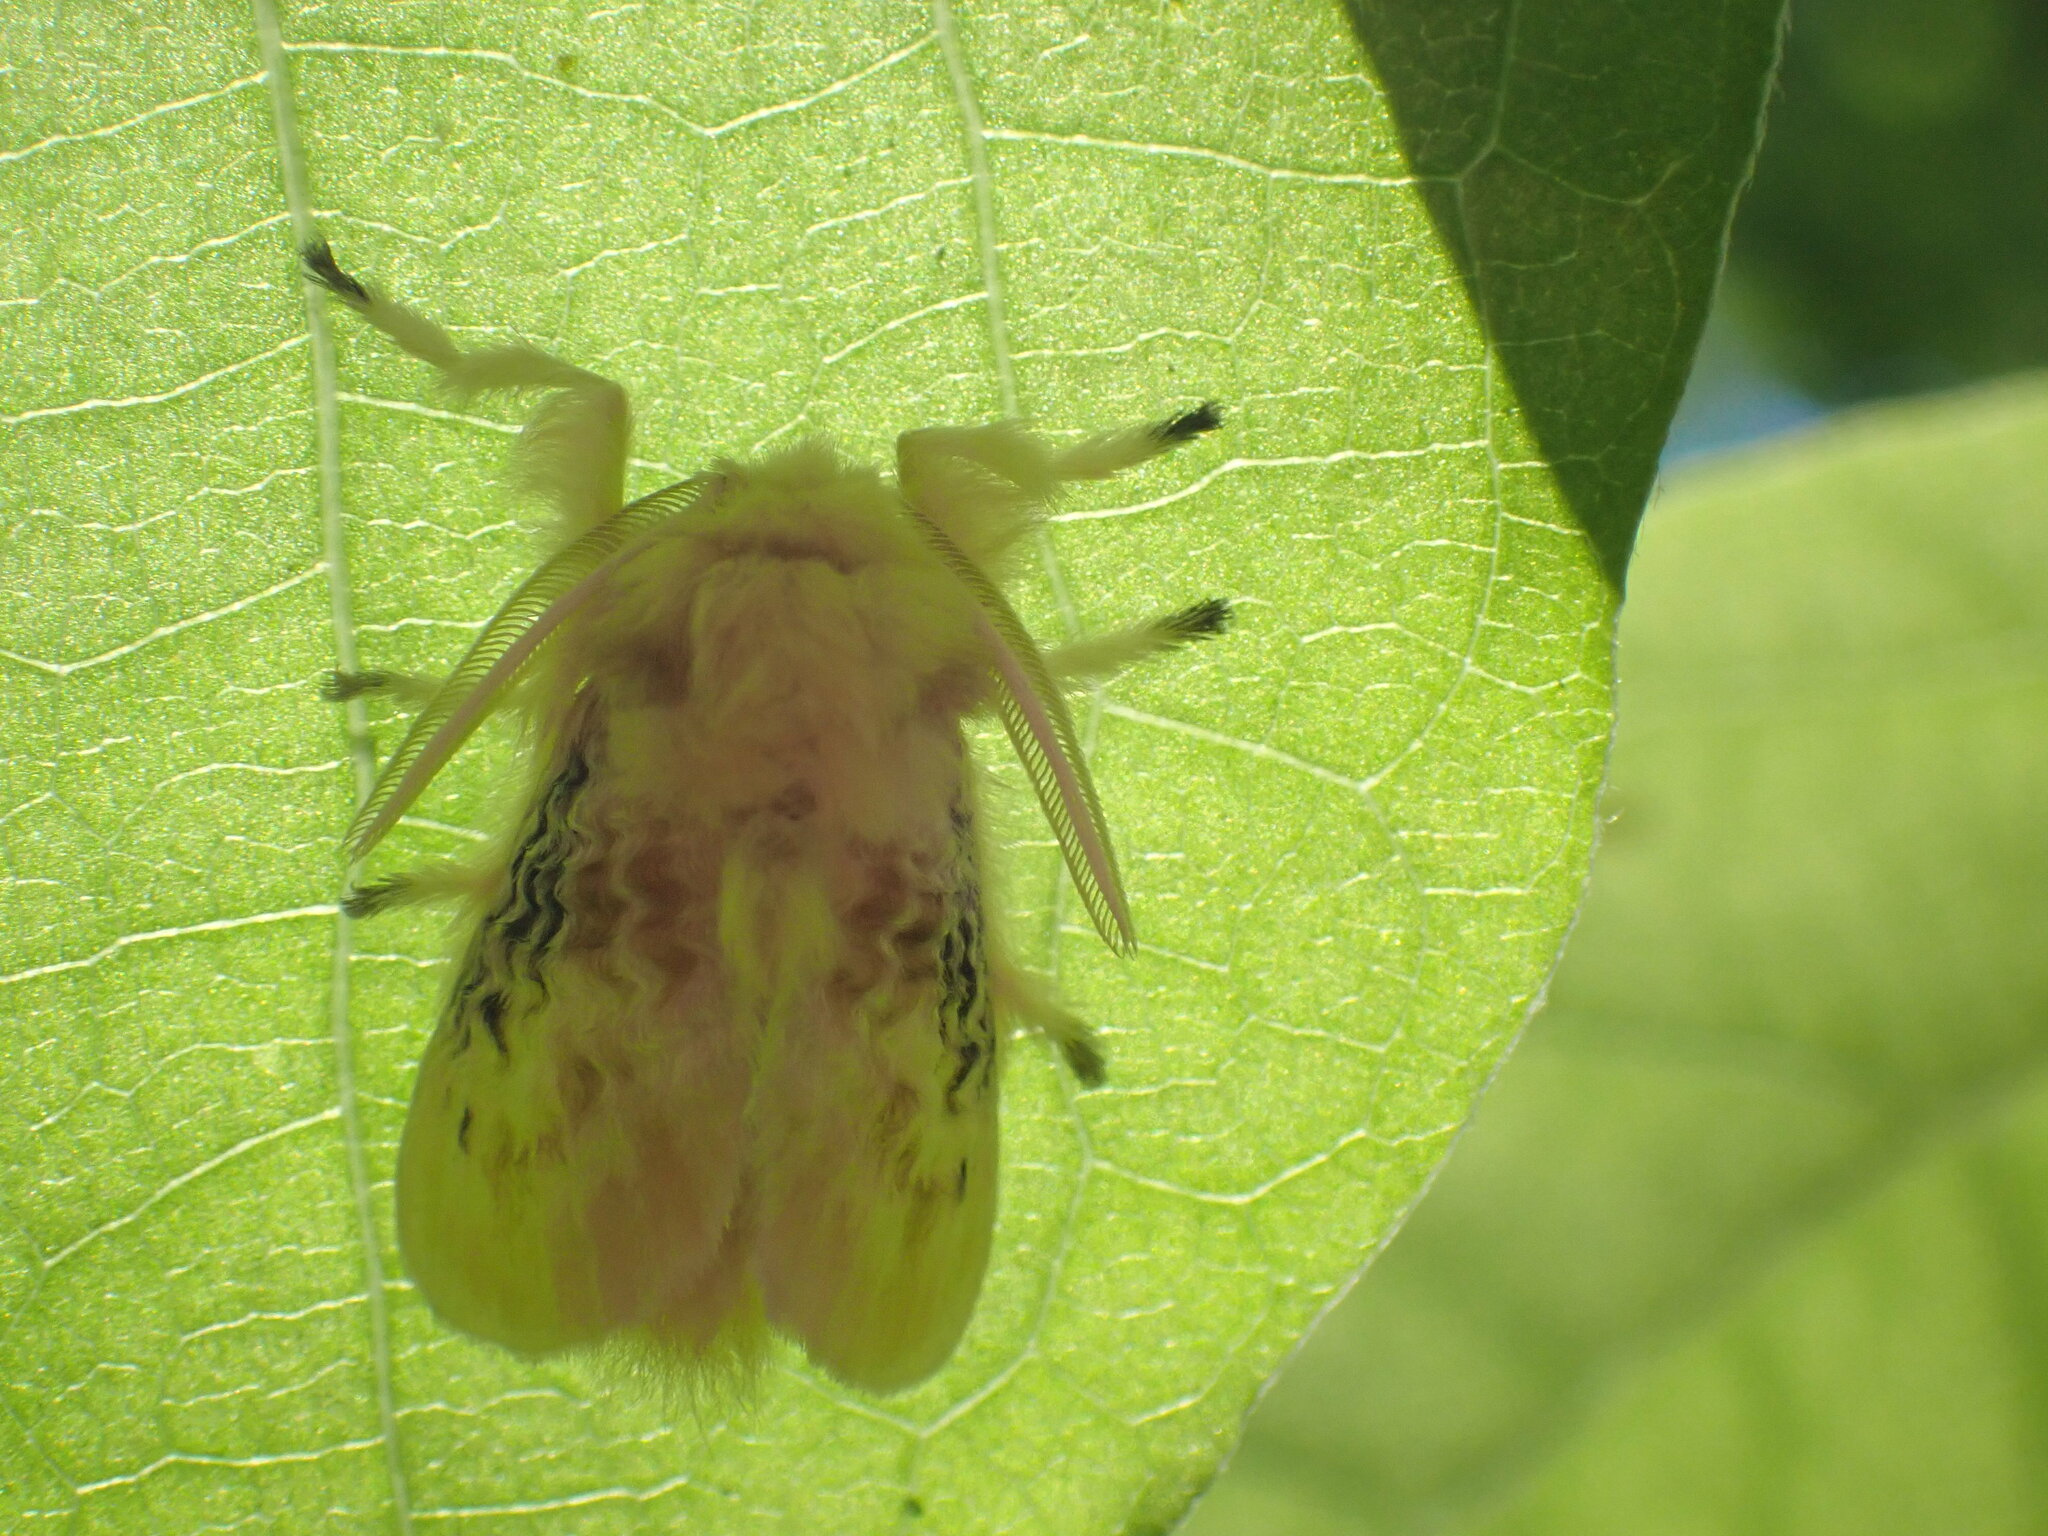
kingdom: Animalia
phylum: Arthropoda
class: Insecta
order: Lepidoptera
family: Megalopygidae
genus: Megalopyge
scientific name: Megalopyge crispata
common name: Black-waved flannel moth
